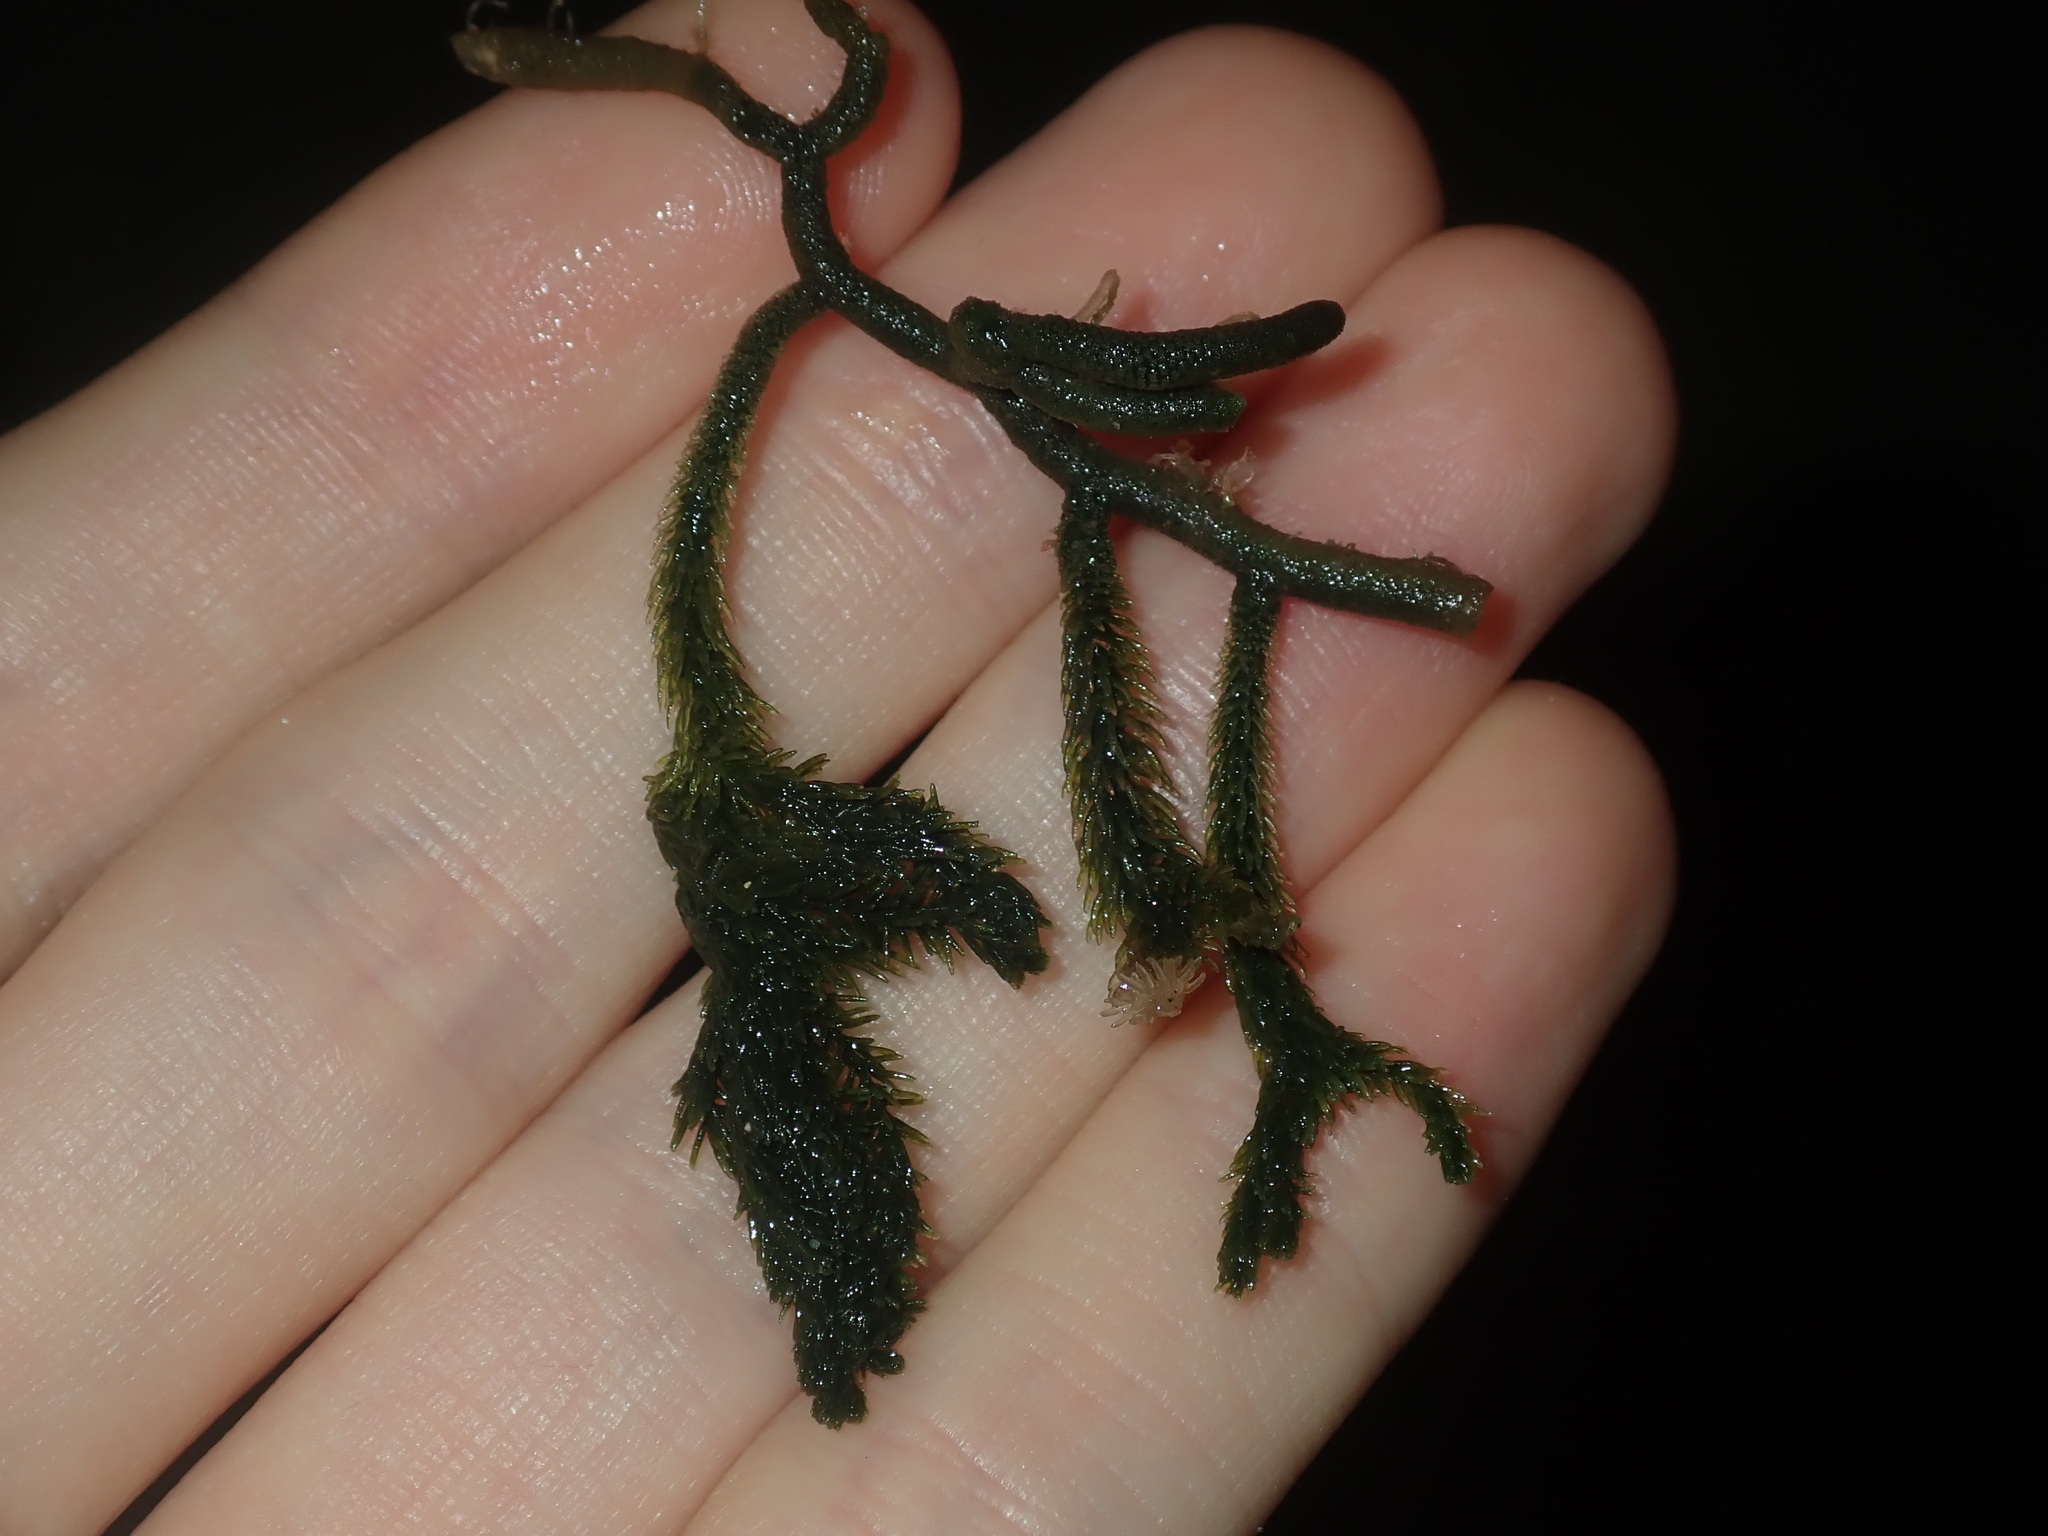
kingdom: Plantae
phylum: Chlorophyta
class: Ulvophyceae
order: Bryopsidales
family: Caulerpaceae
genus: Caulerpa
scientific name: Caulerpa flexilis
